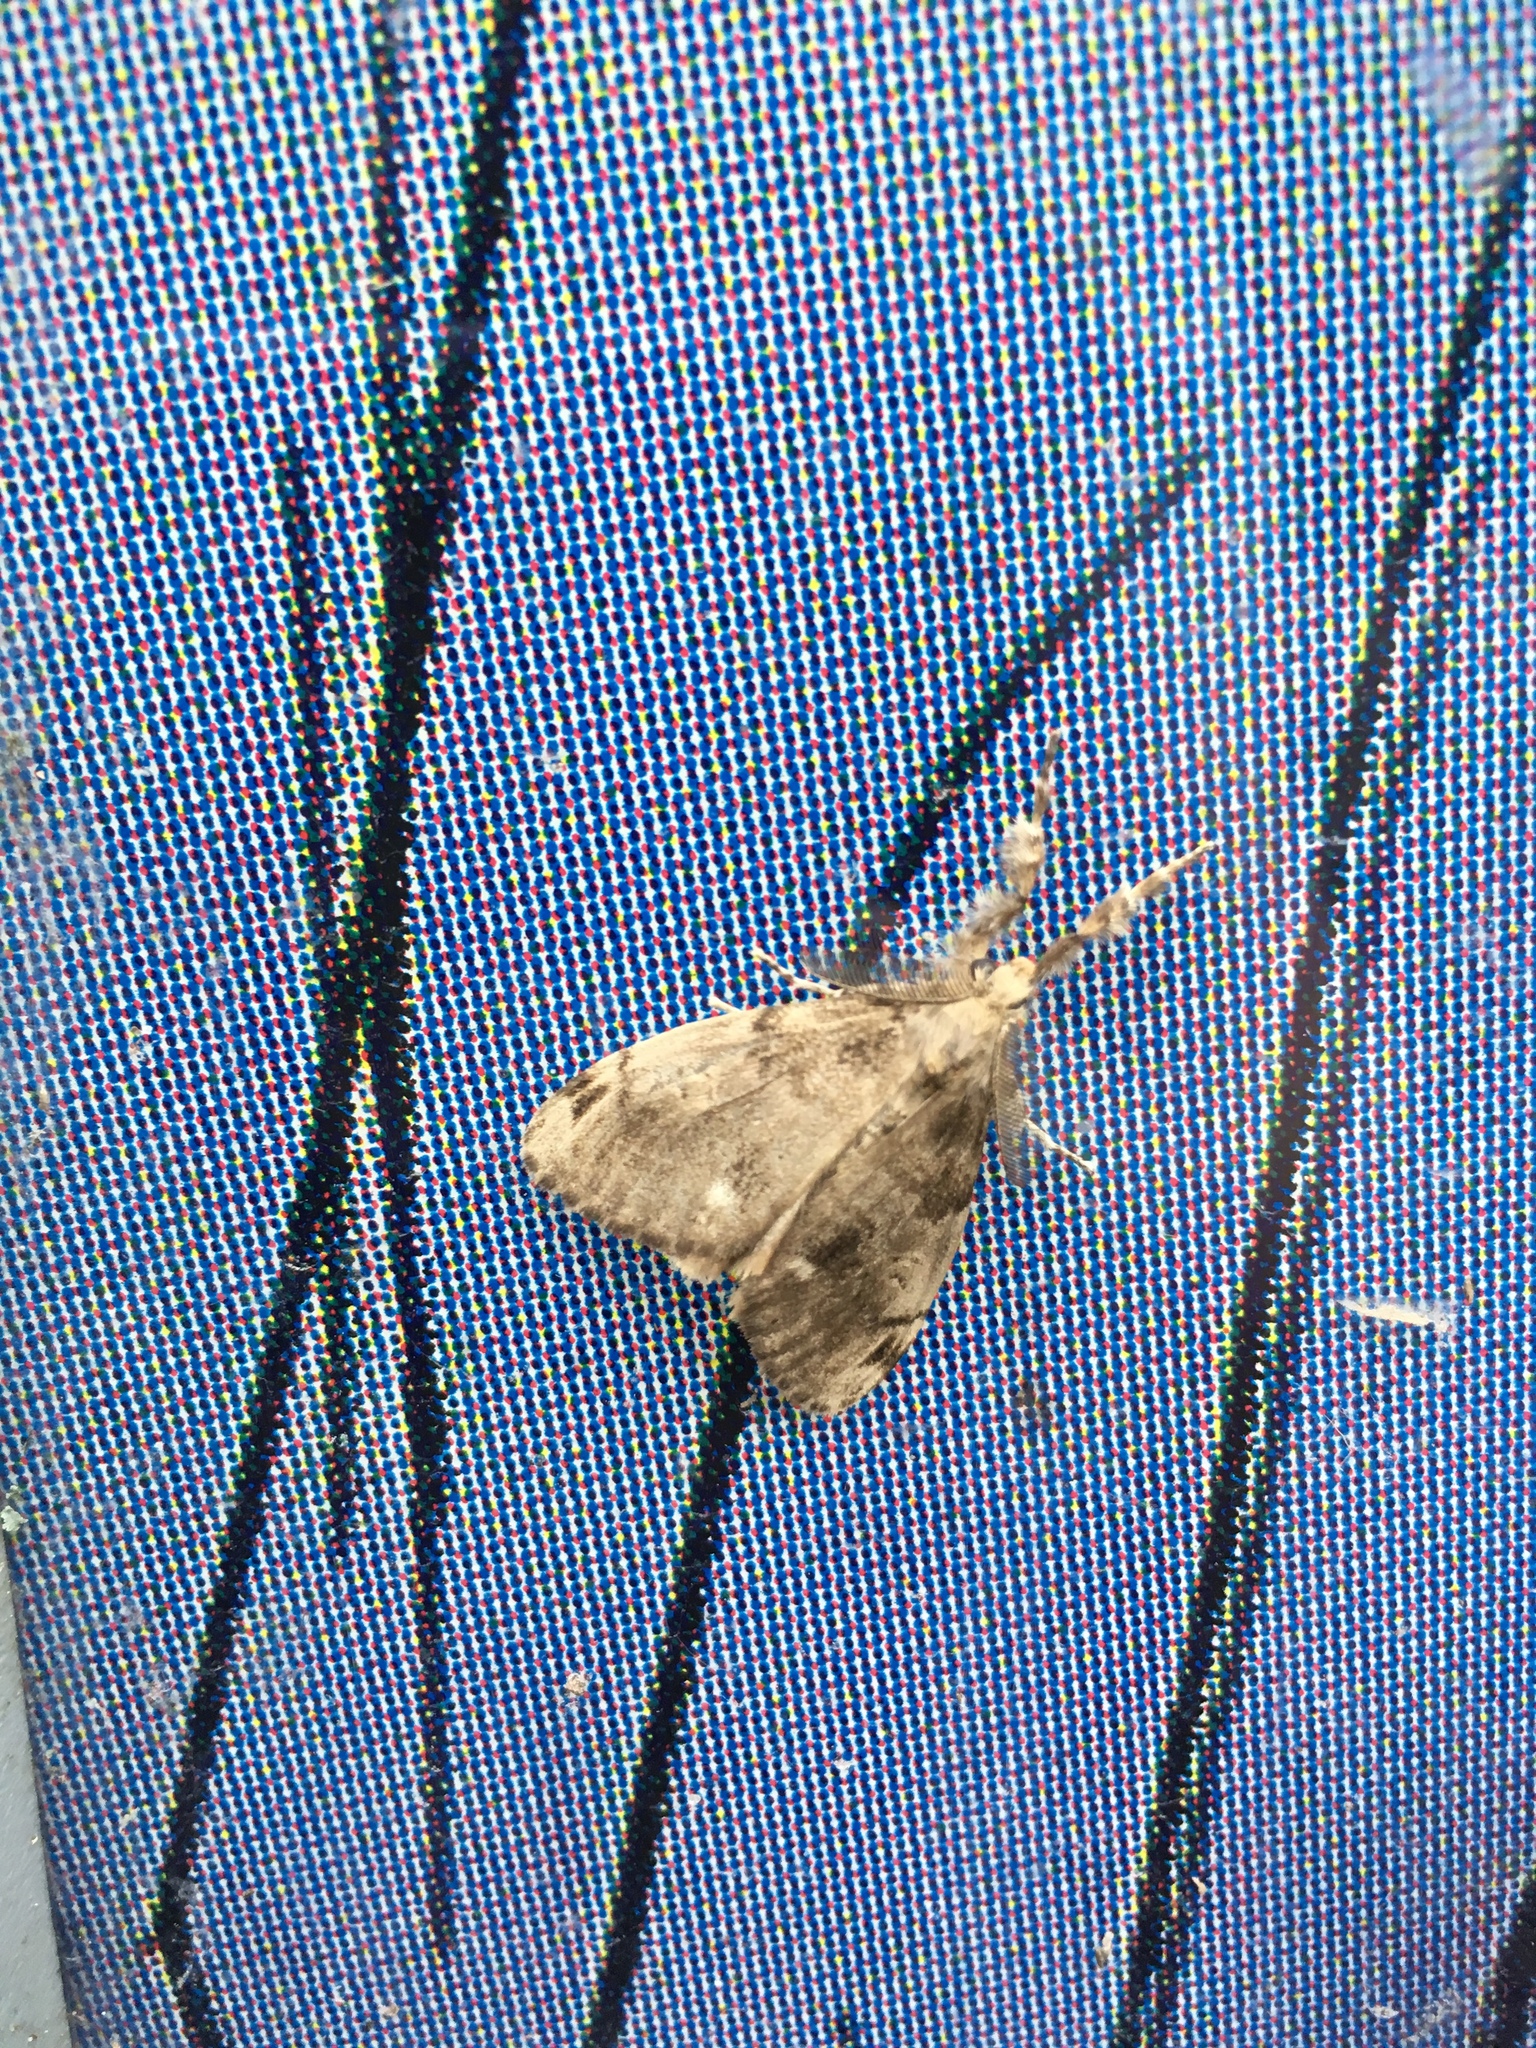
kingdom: Animalia
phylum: Arthropoda
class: Insecta
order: Lepidoptera
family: Erebidae
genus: Orgyia
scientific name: Orgyia leucostigma
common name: White-marked tussock moth
